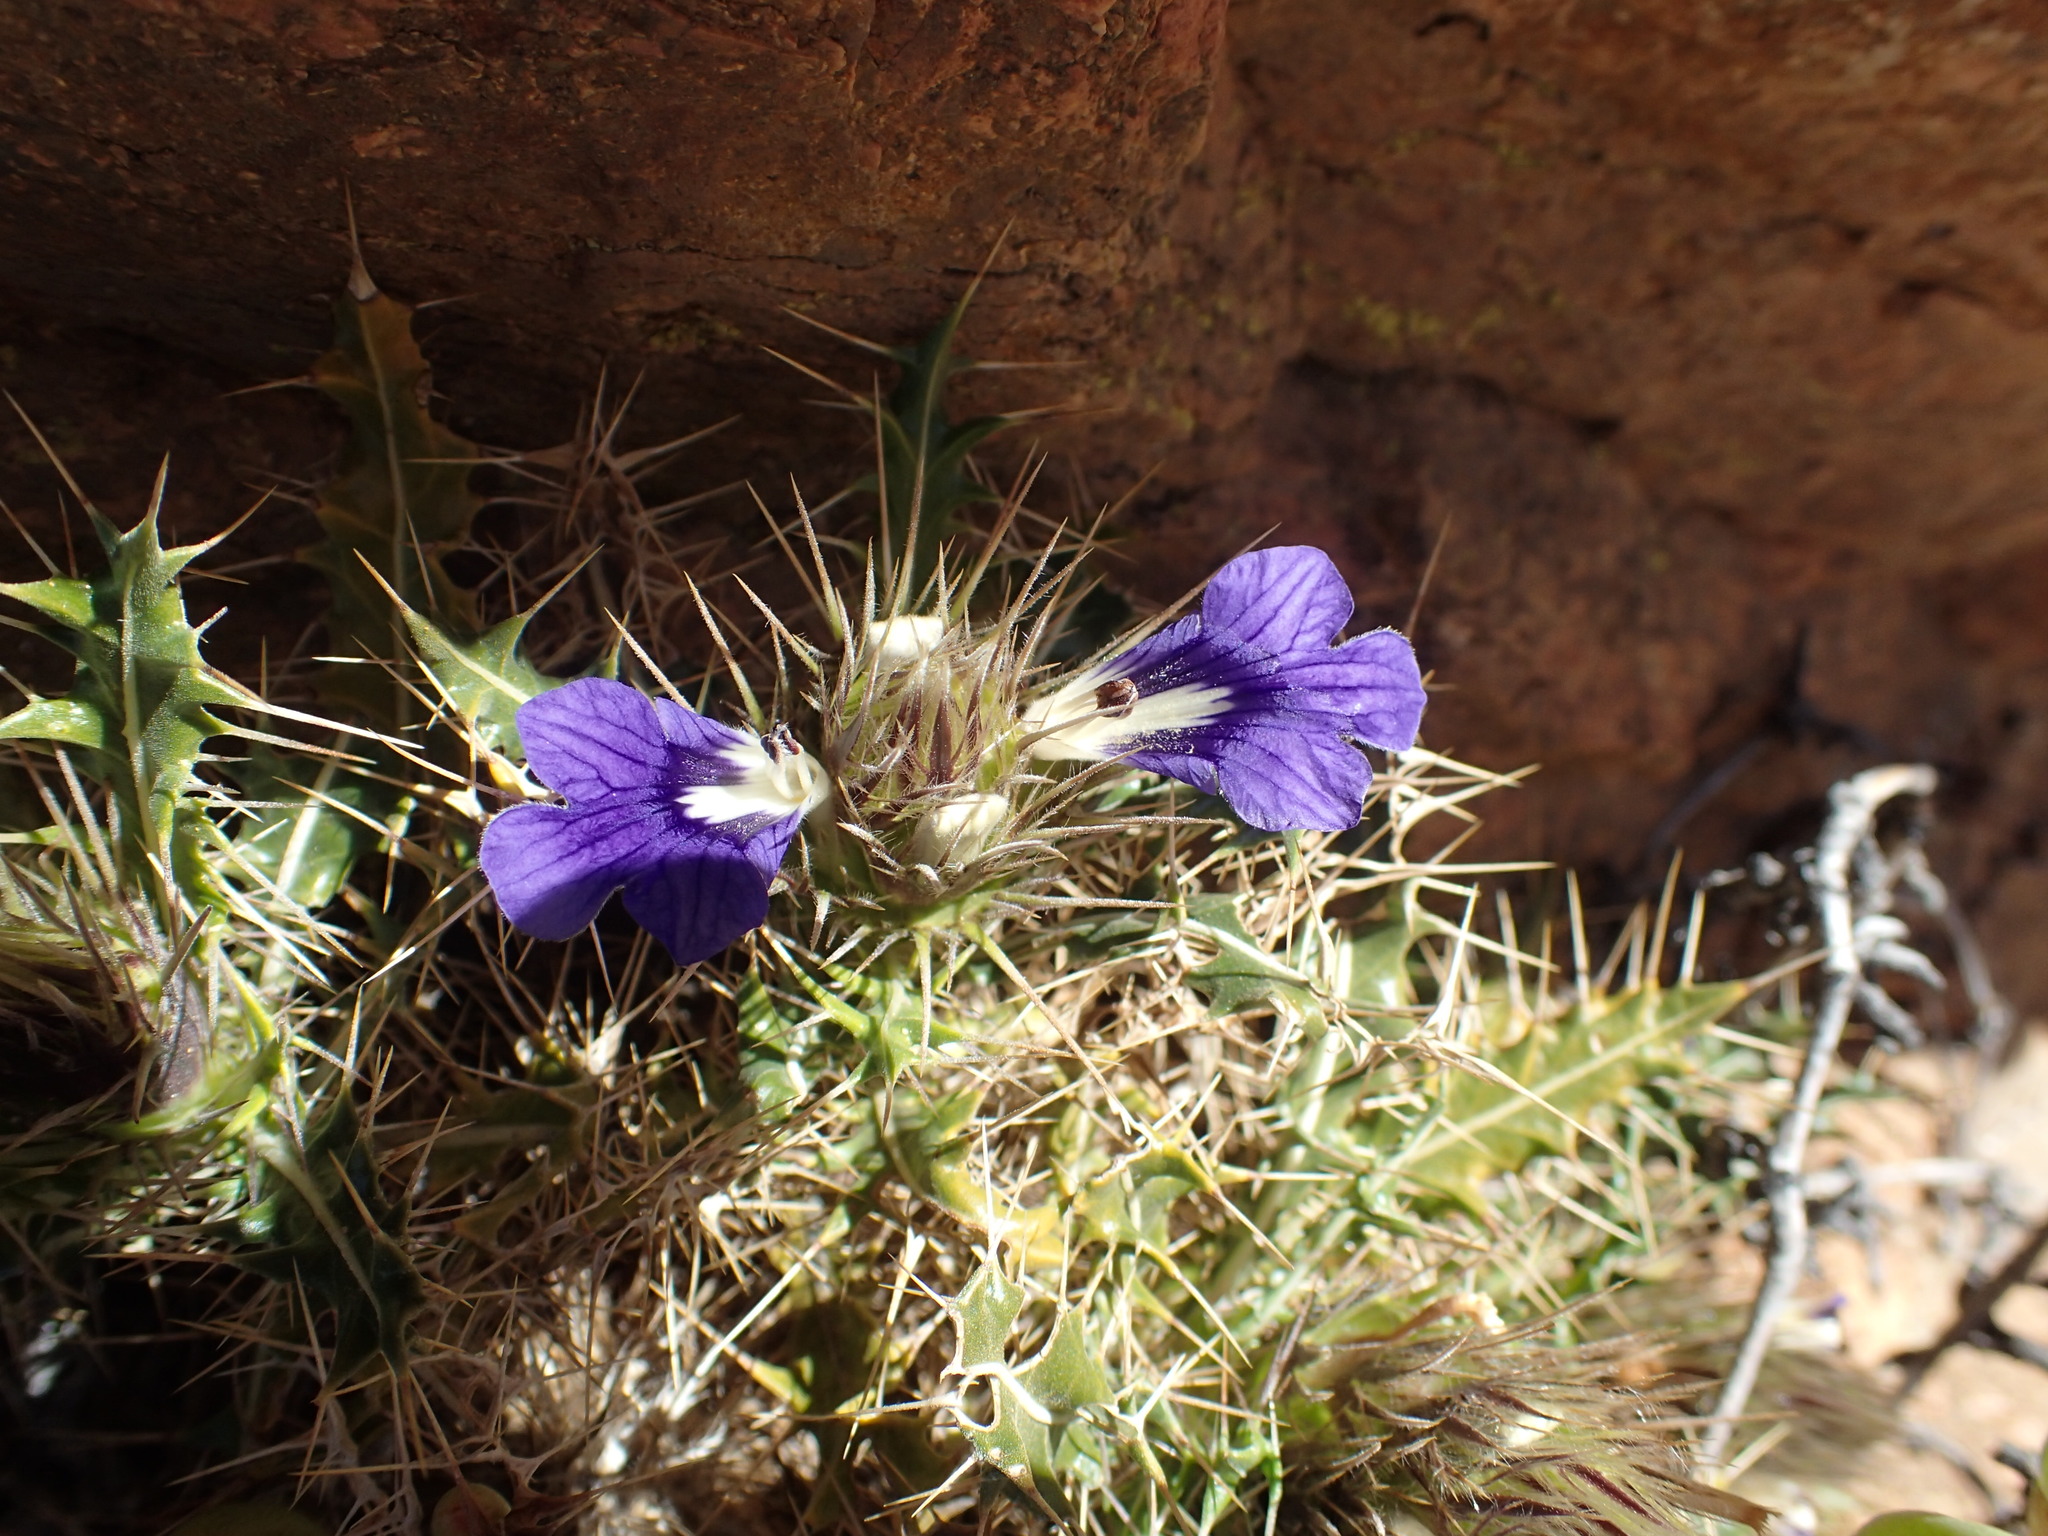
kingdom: Plantae
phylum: Tracheophyta
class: Magnoliopsida
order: Lamiales
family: Acanthaceae
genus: Acanthopsis
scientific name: Acanthopsis horrida
